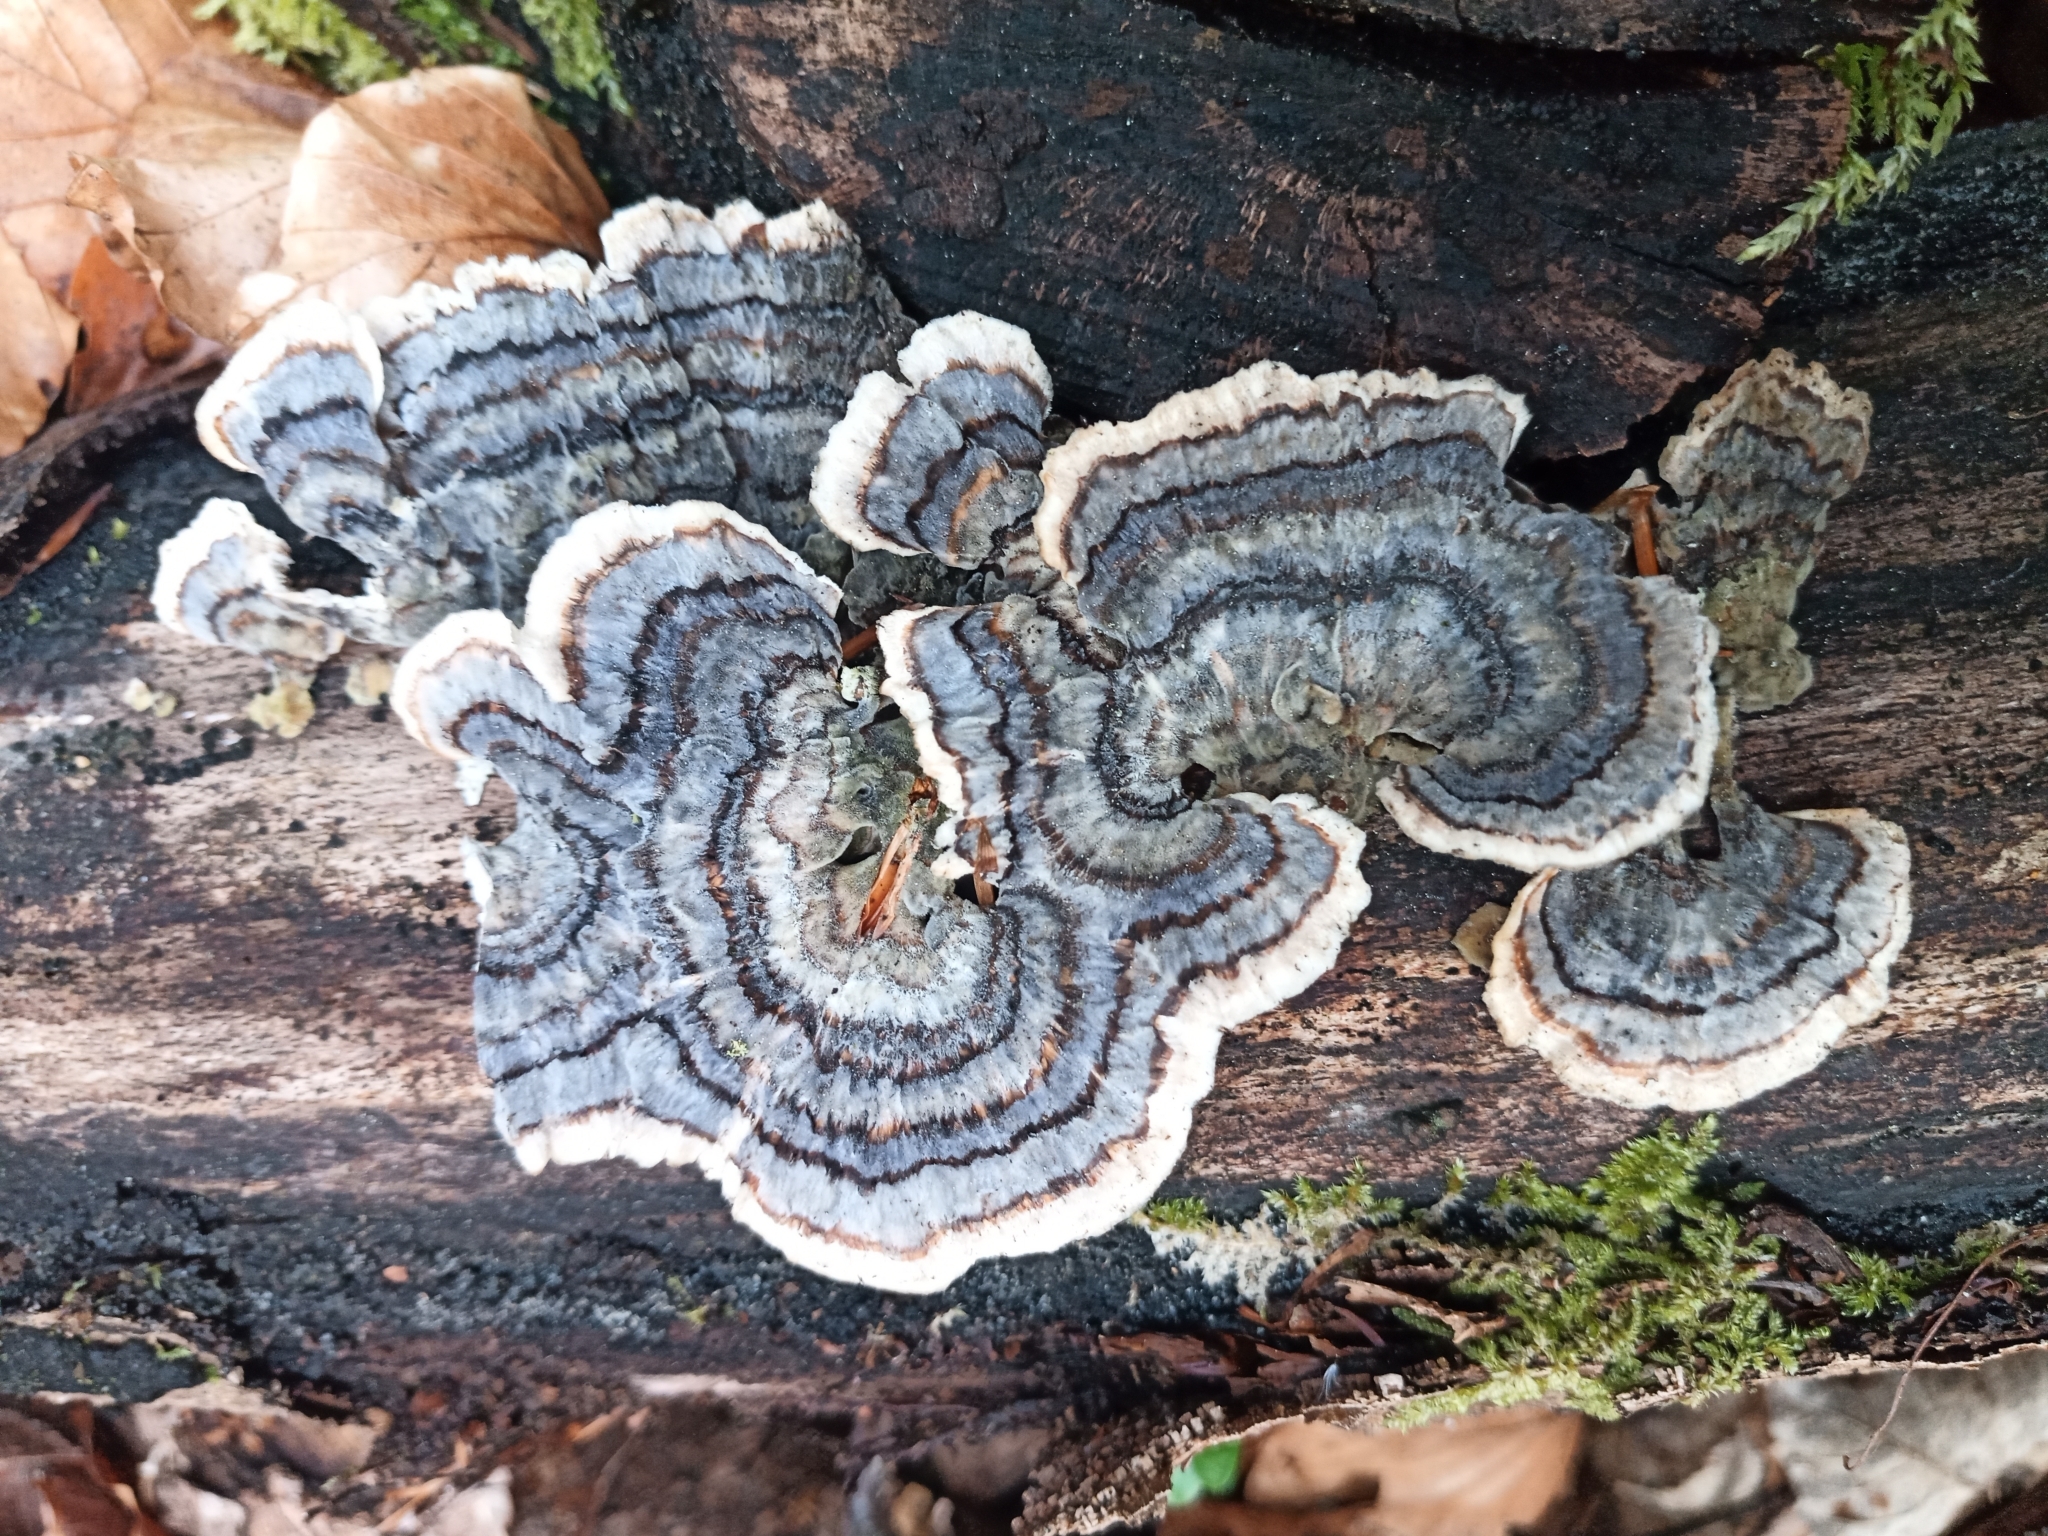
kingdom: Fungi
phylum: Basidiomycota
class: Agaricomycetes
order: Polyporales
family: Polyporaceae
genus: Trametes
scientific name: Trametes versicolor
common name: Turkeytail
